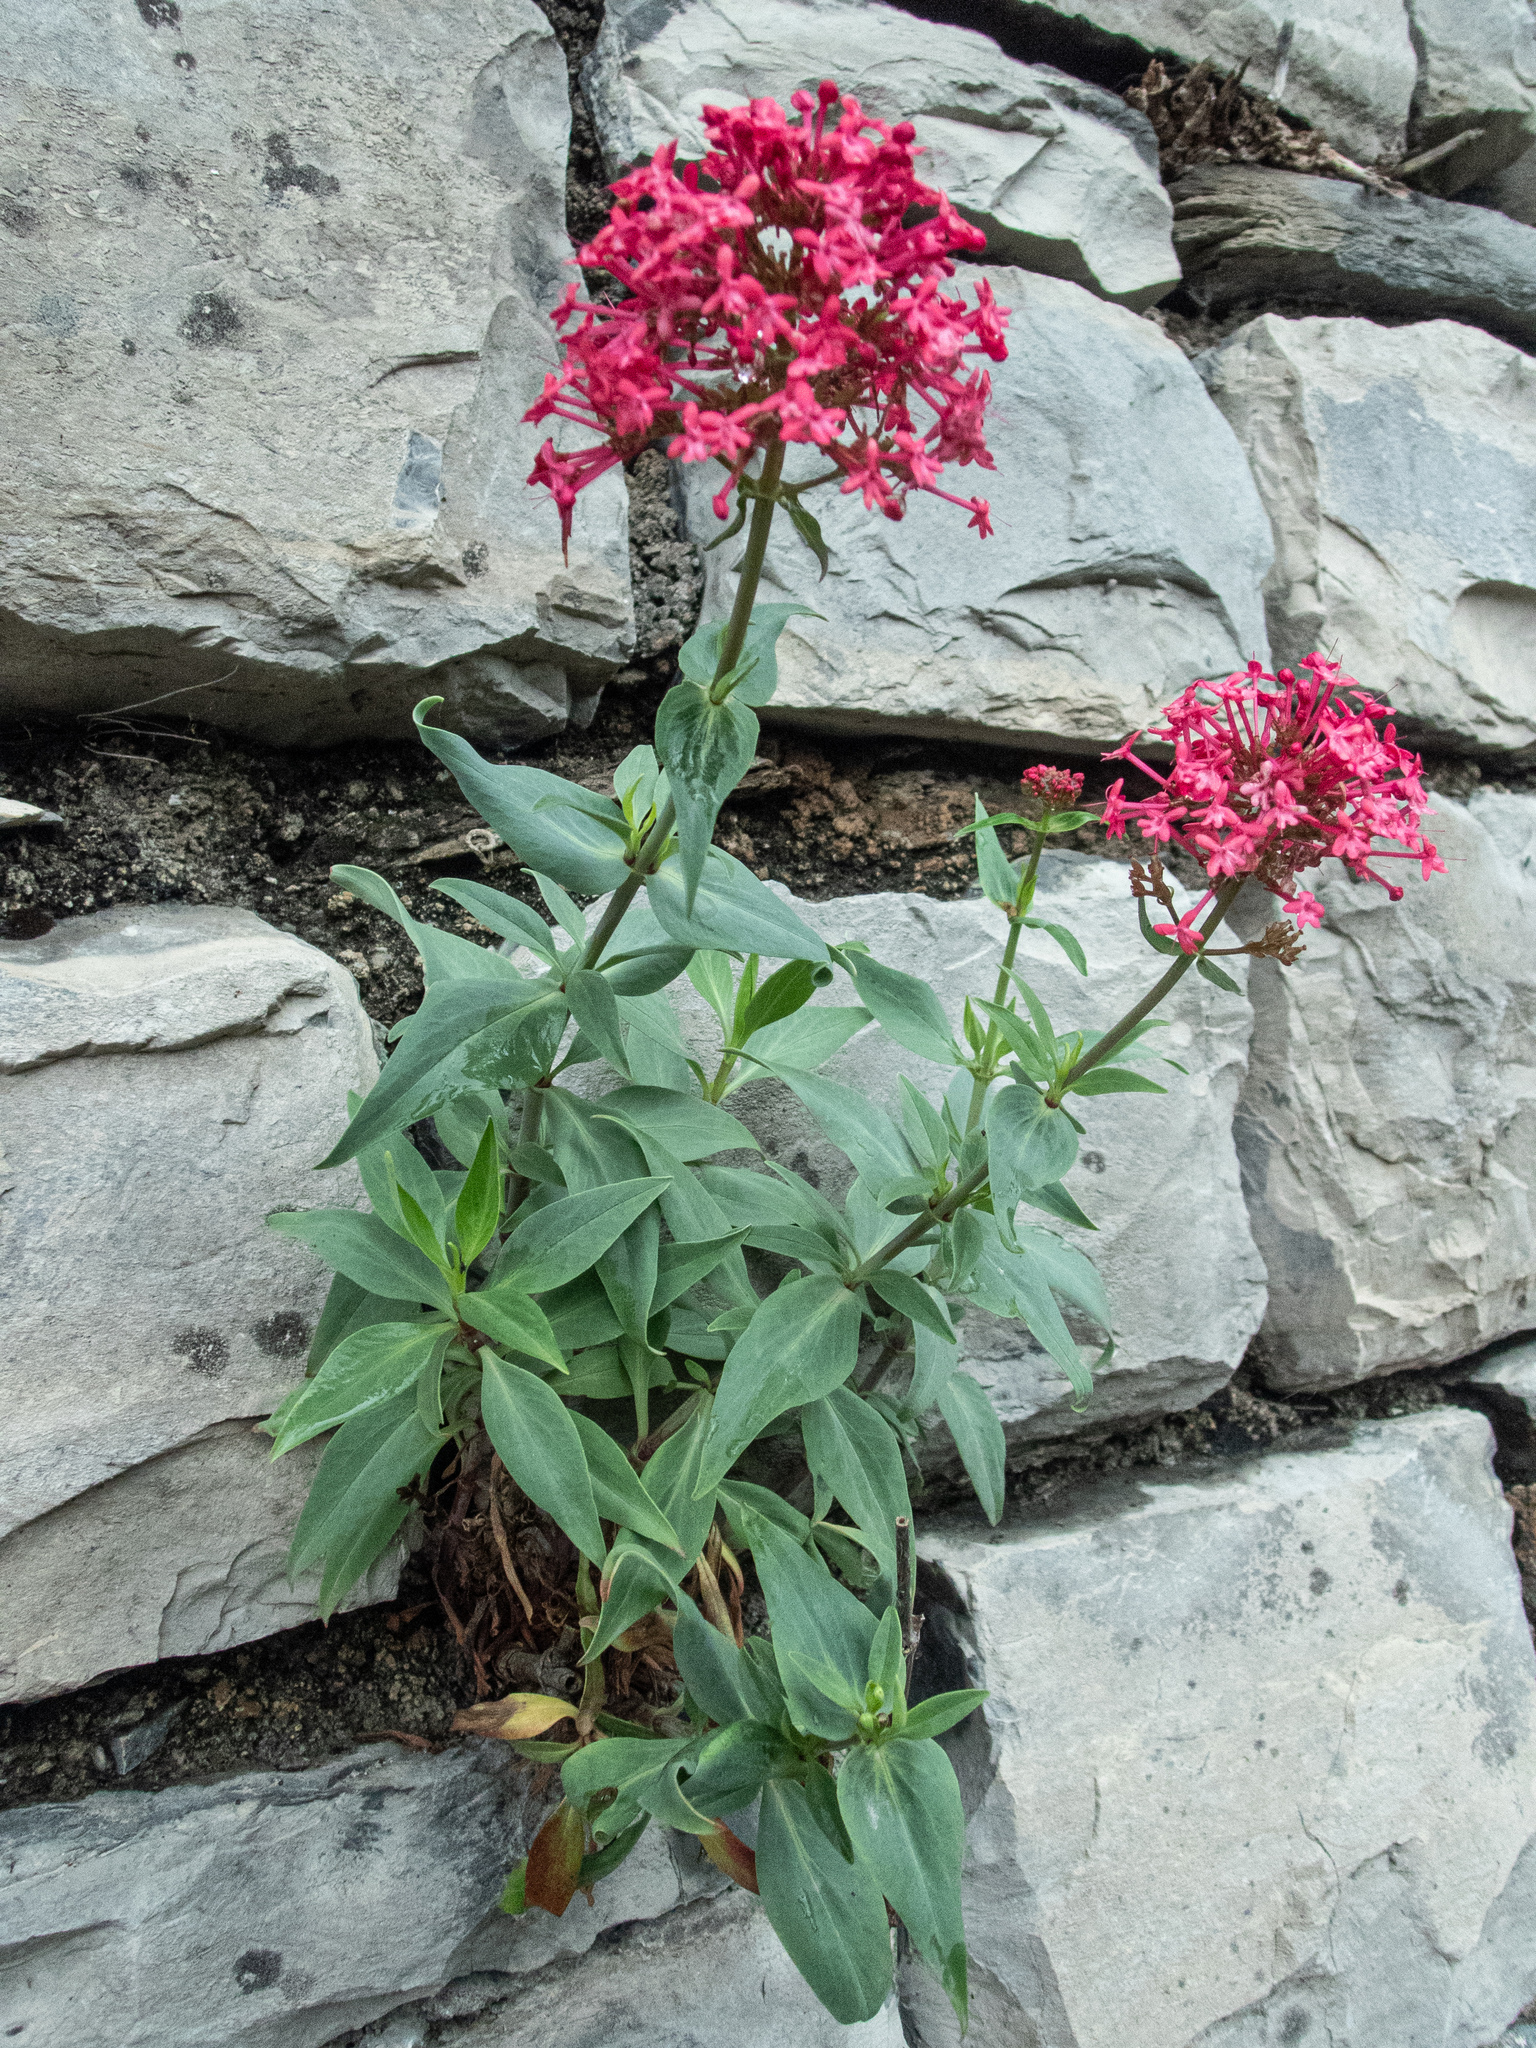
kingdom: Plantae
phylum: Tracheophyta
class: Magnoliopsida
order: Dipsacales
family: Caprifoliaceae
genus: Centranthus
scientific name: Centranthus ruber
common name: Red valerian
